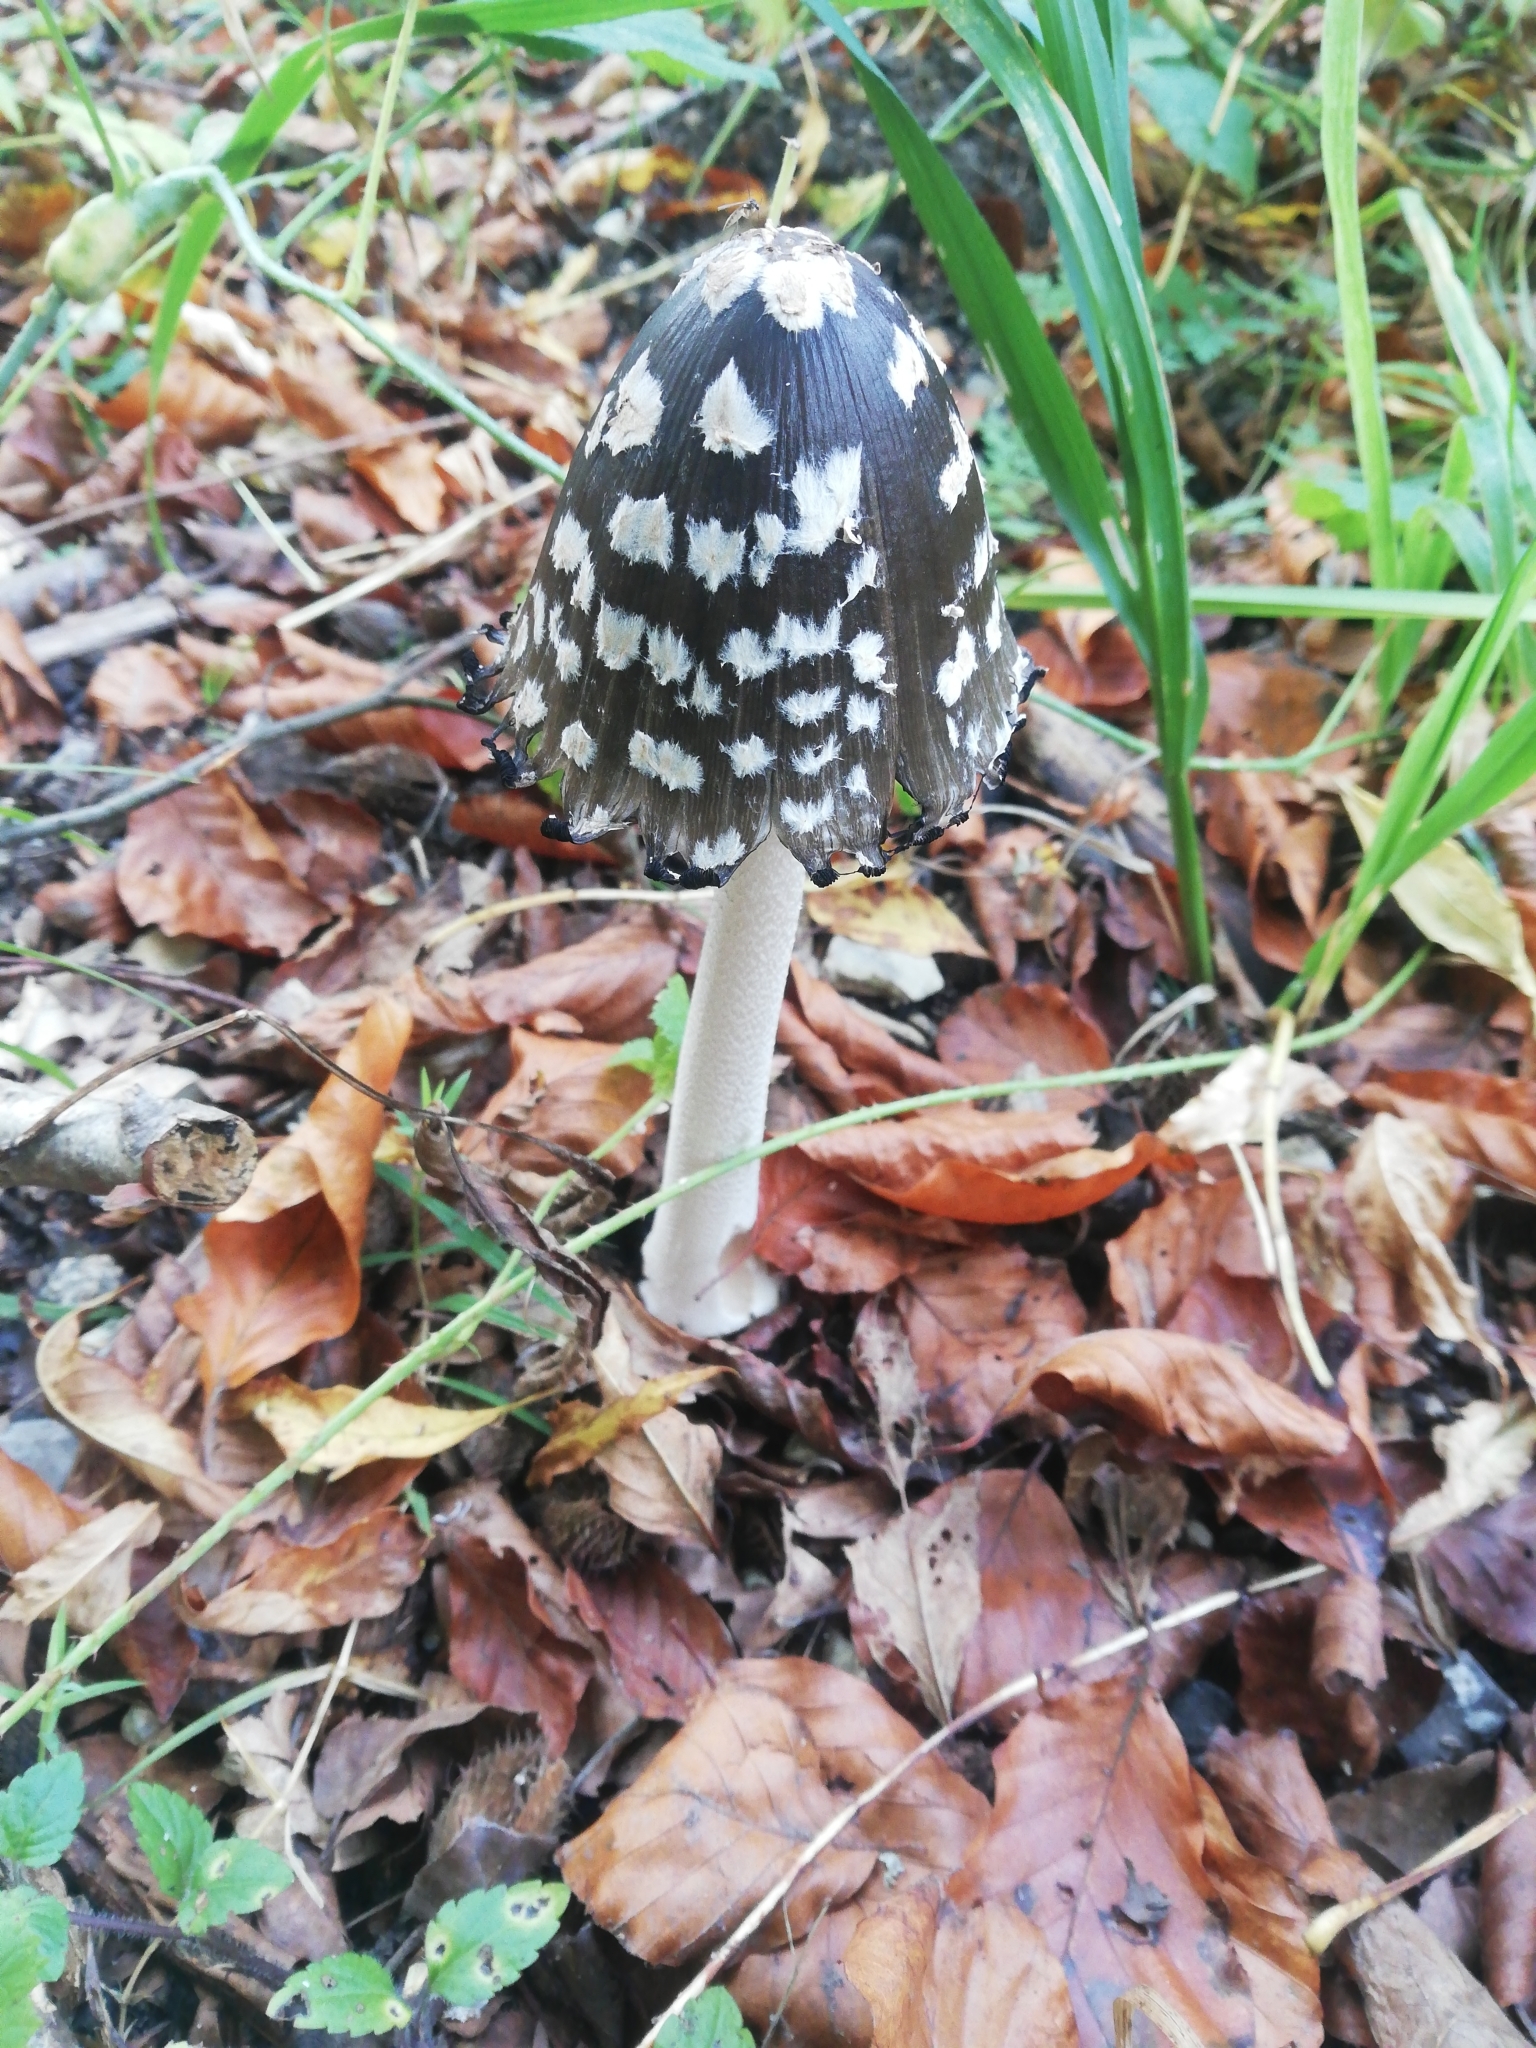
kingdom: Fungi
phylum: Basidiomycota
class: Agaricomycetes
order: Agaricales
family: Psathyrellaceae
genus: Coprinopsis
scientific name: Coprinopsis picacea
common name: Magpie inkcap
